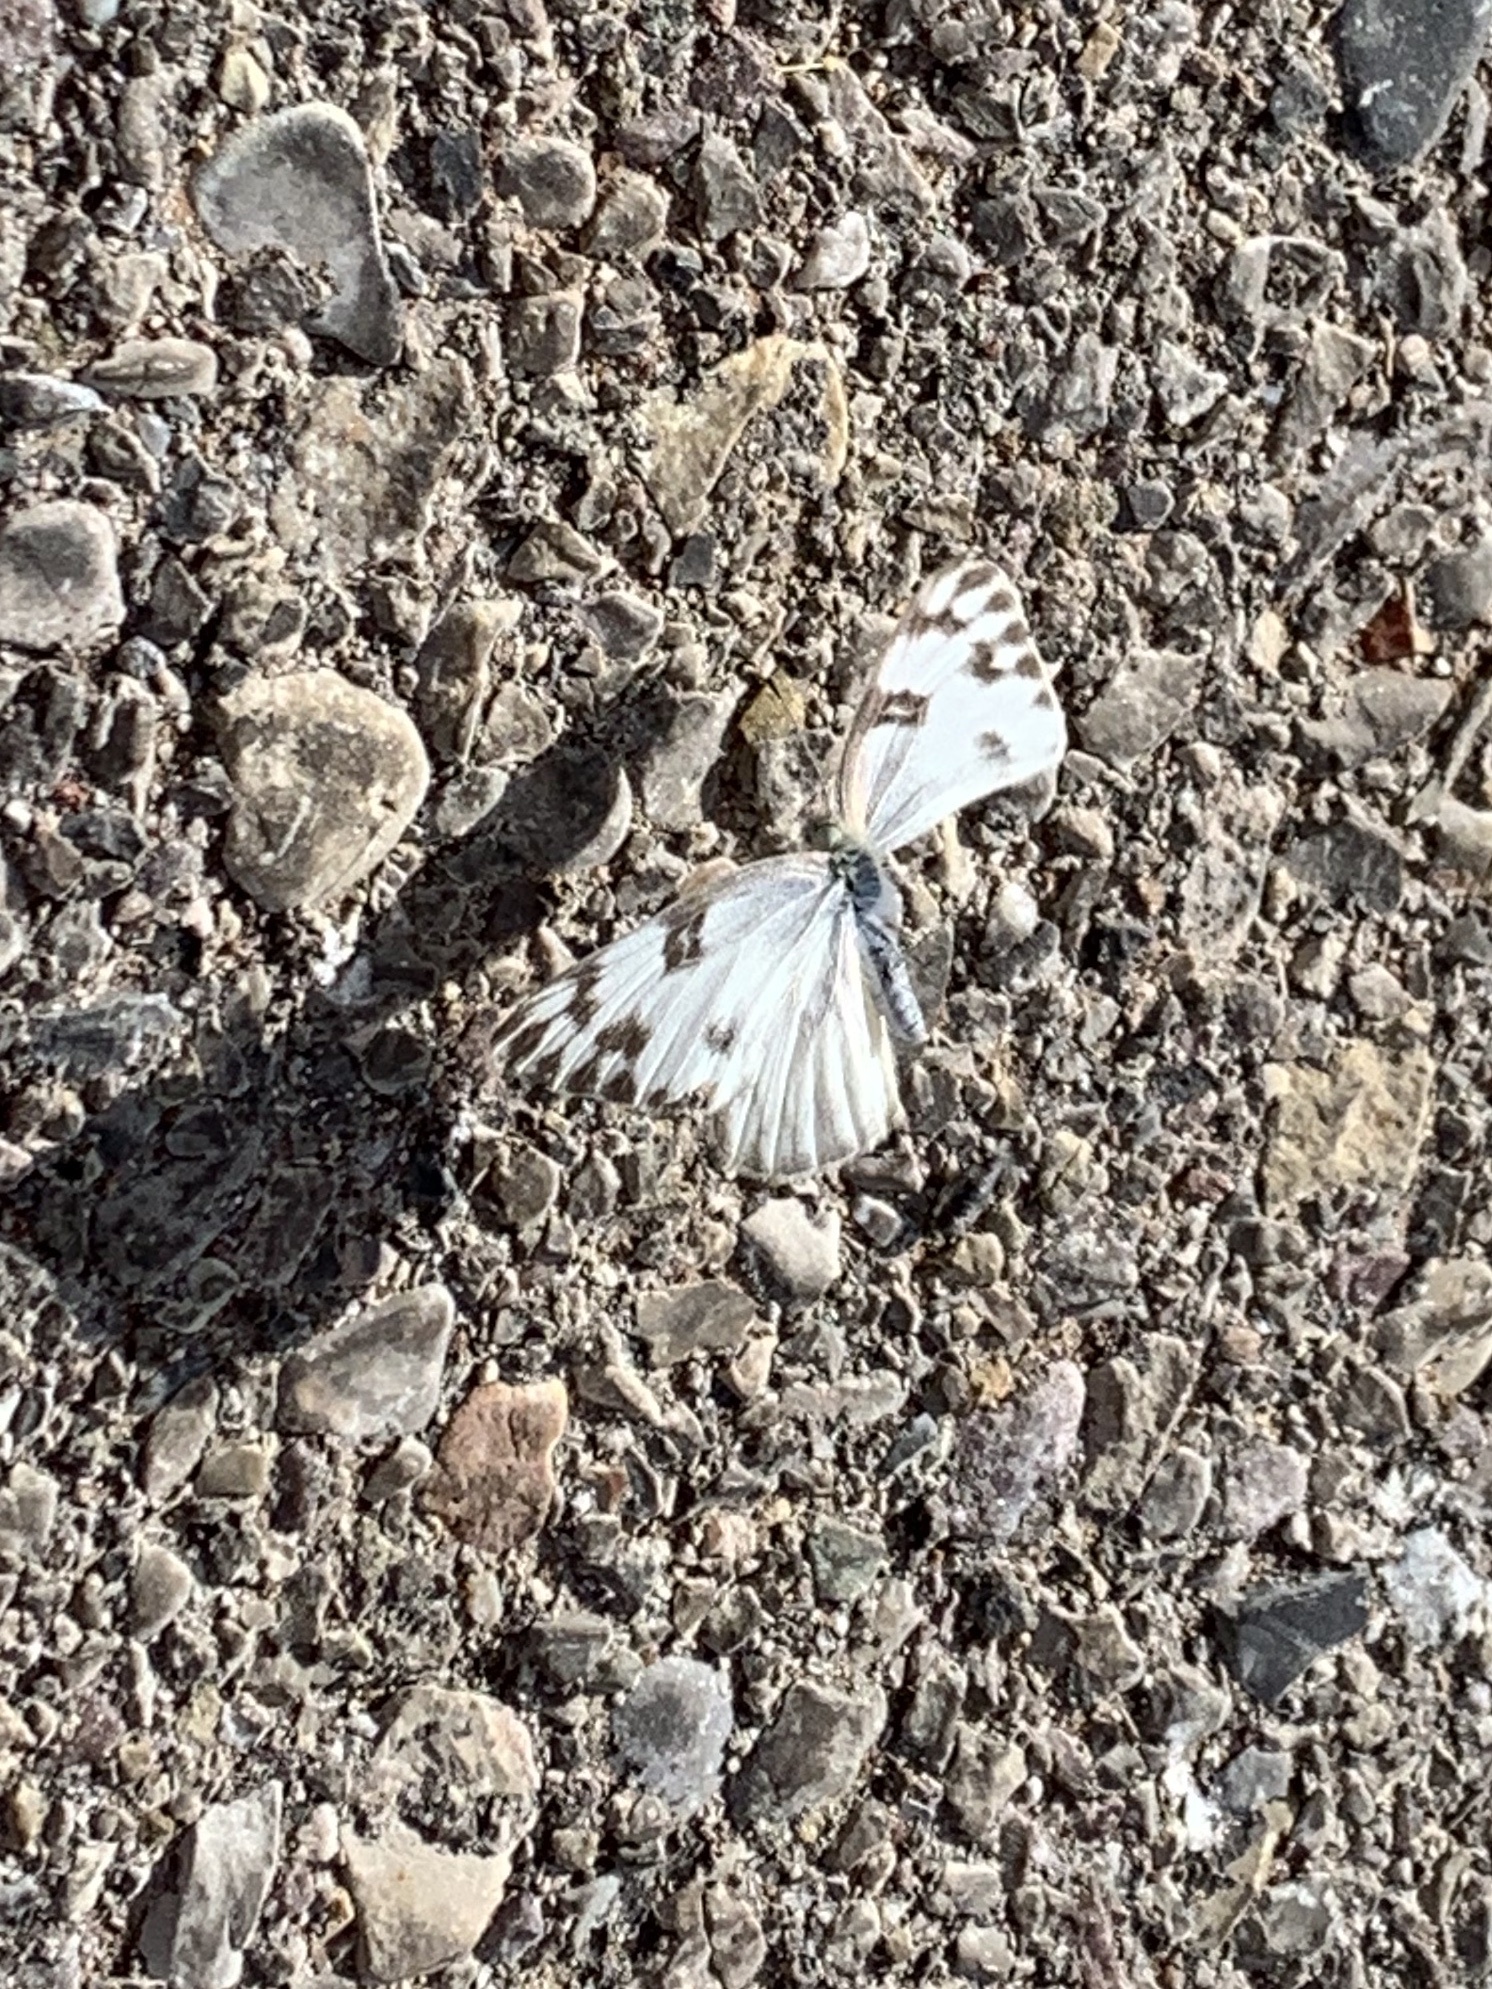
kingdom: Animalia
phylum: Arthropoda
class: Insecta
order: Lepidoptera
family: Pieridae
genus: Pontia
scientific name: Pontia protodice
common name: Checkered white
